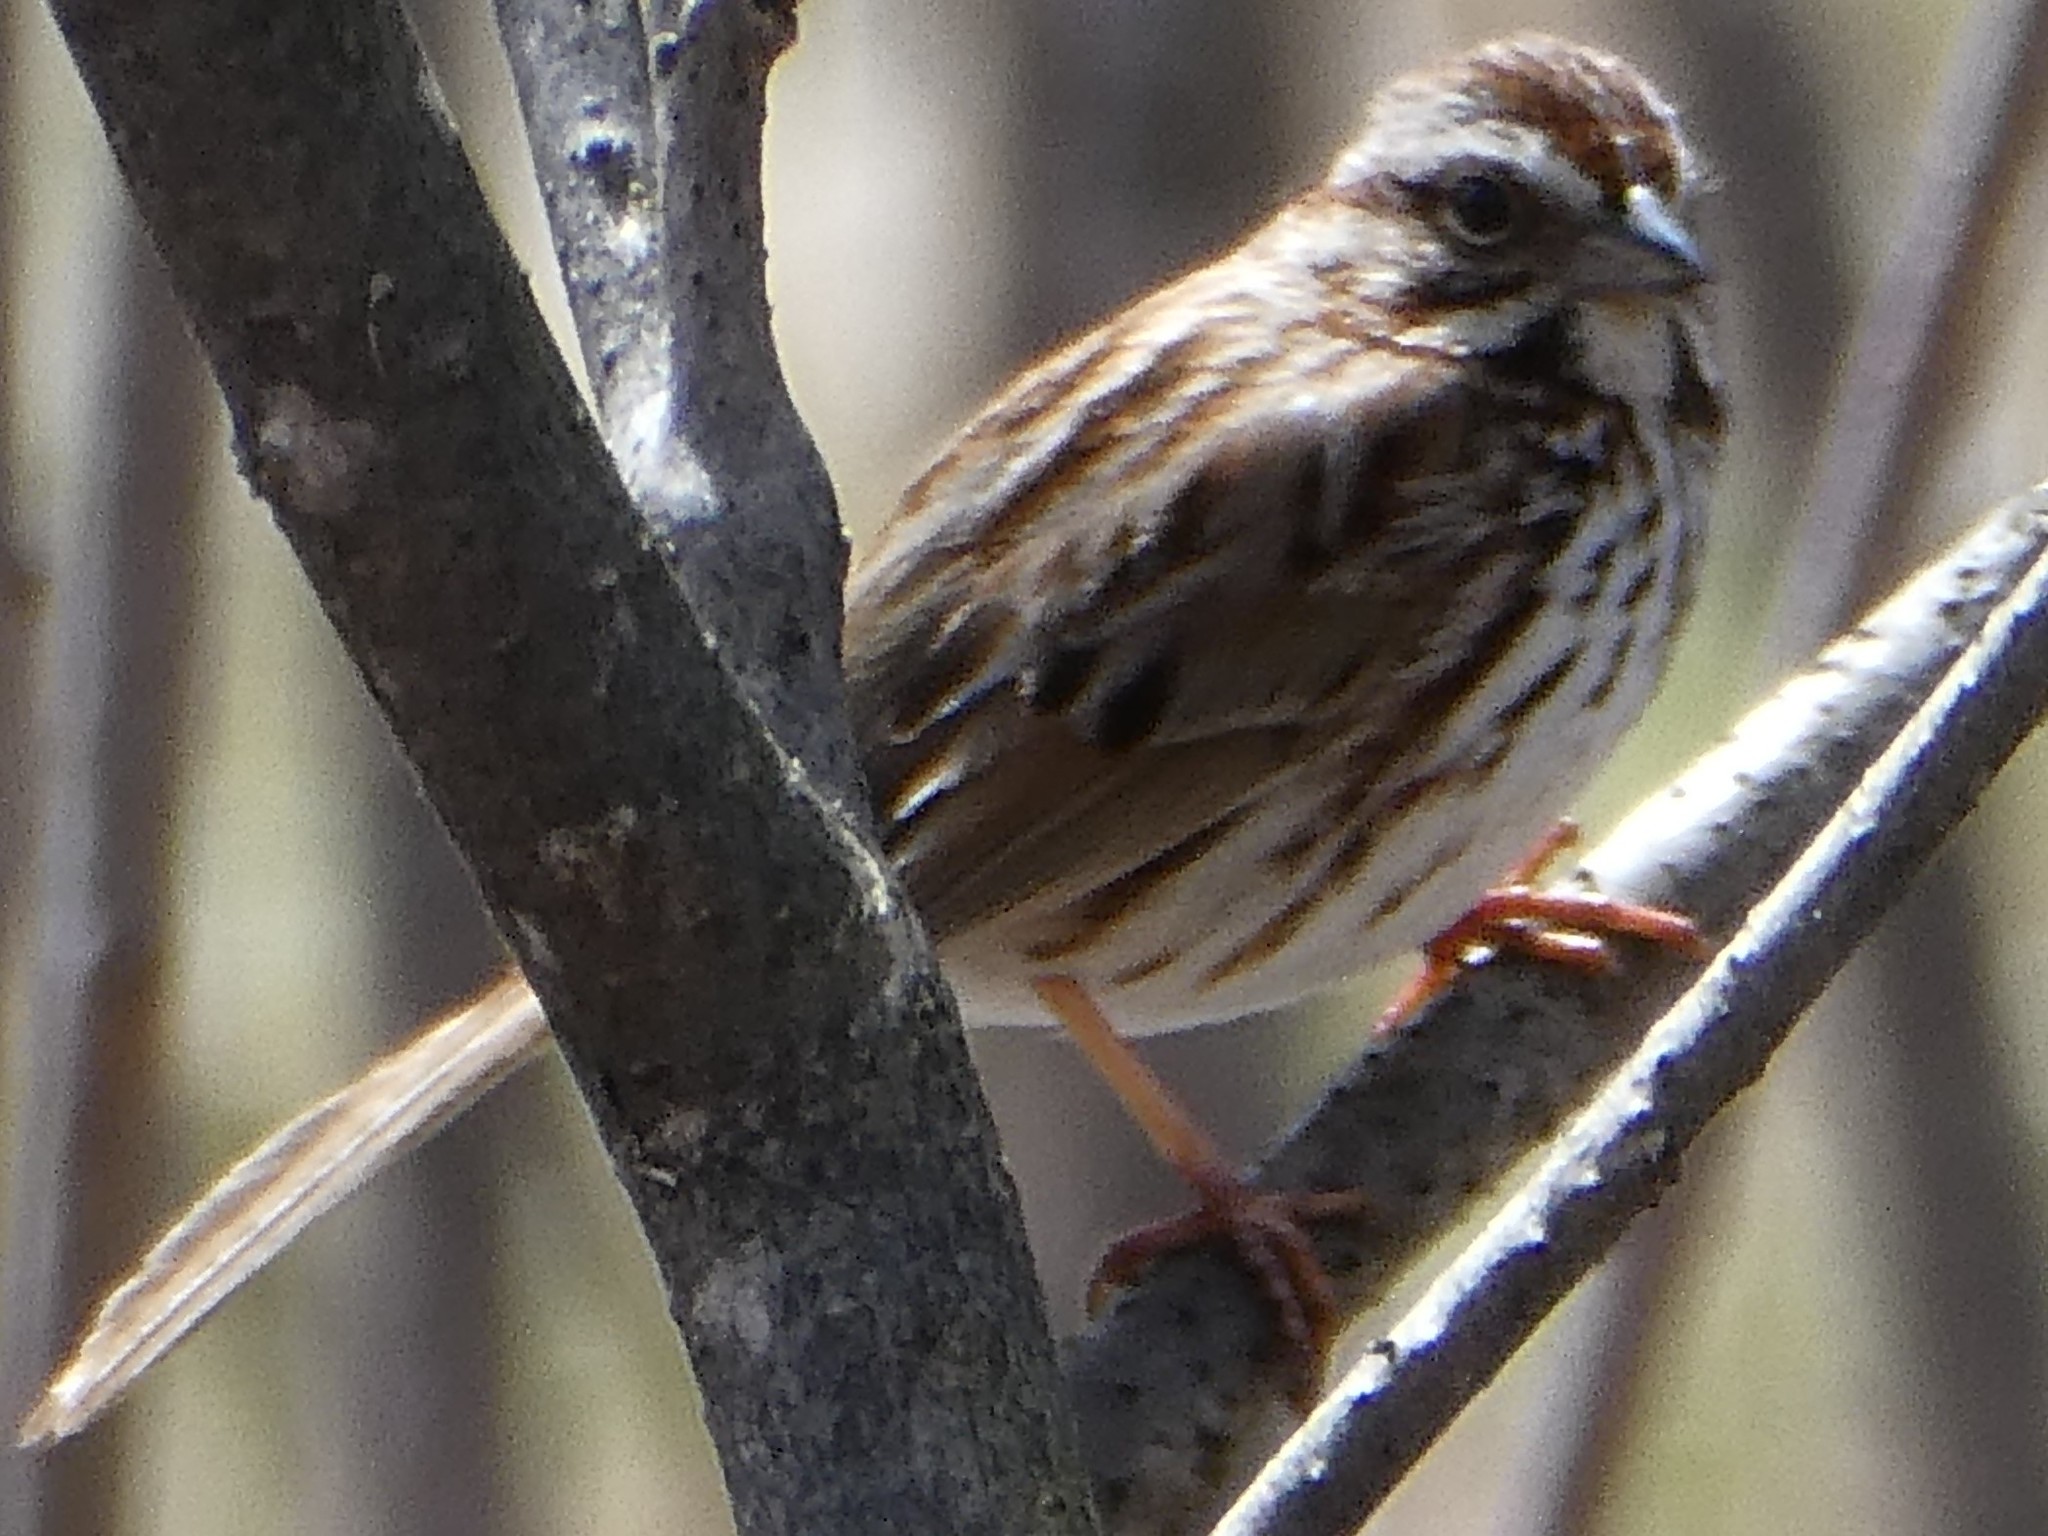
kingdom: Animalia
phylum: Chordata
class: Aves
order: Passeriformes
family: Passerellidae
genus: Melospiza
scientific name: Melospiza melodia
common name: Song sparrow
